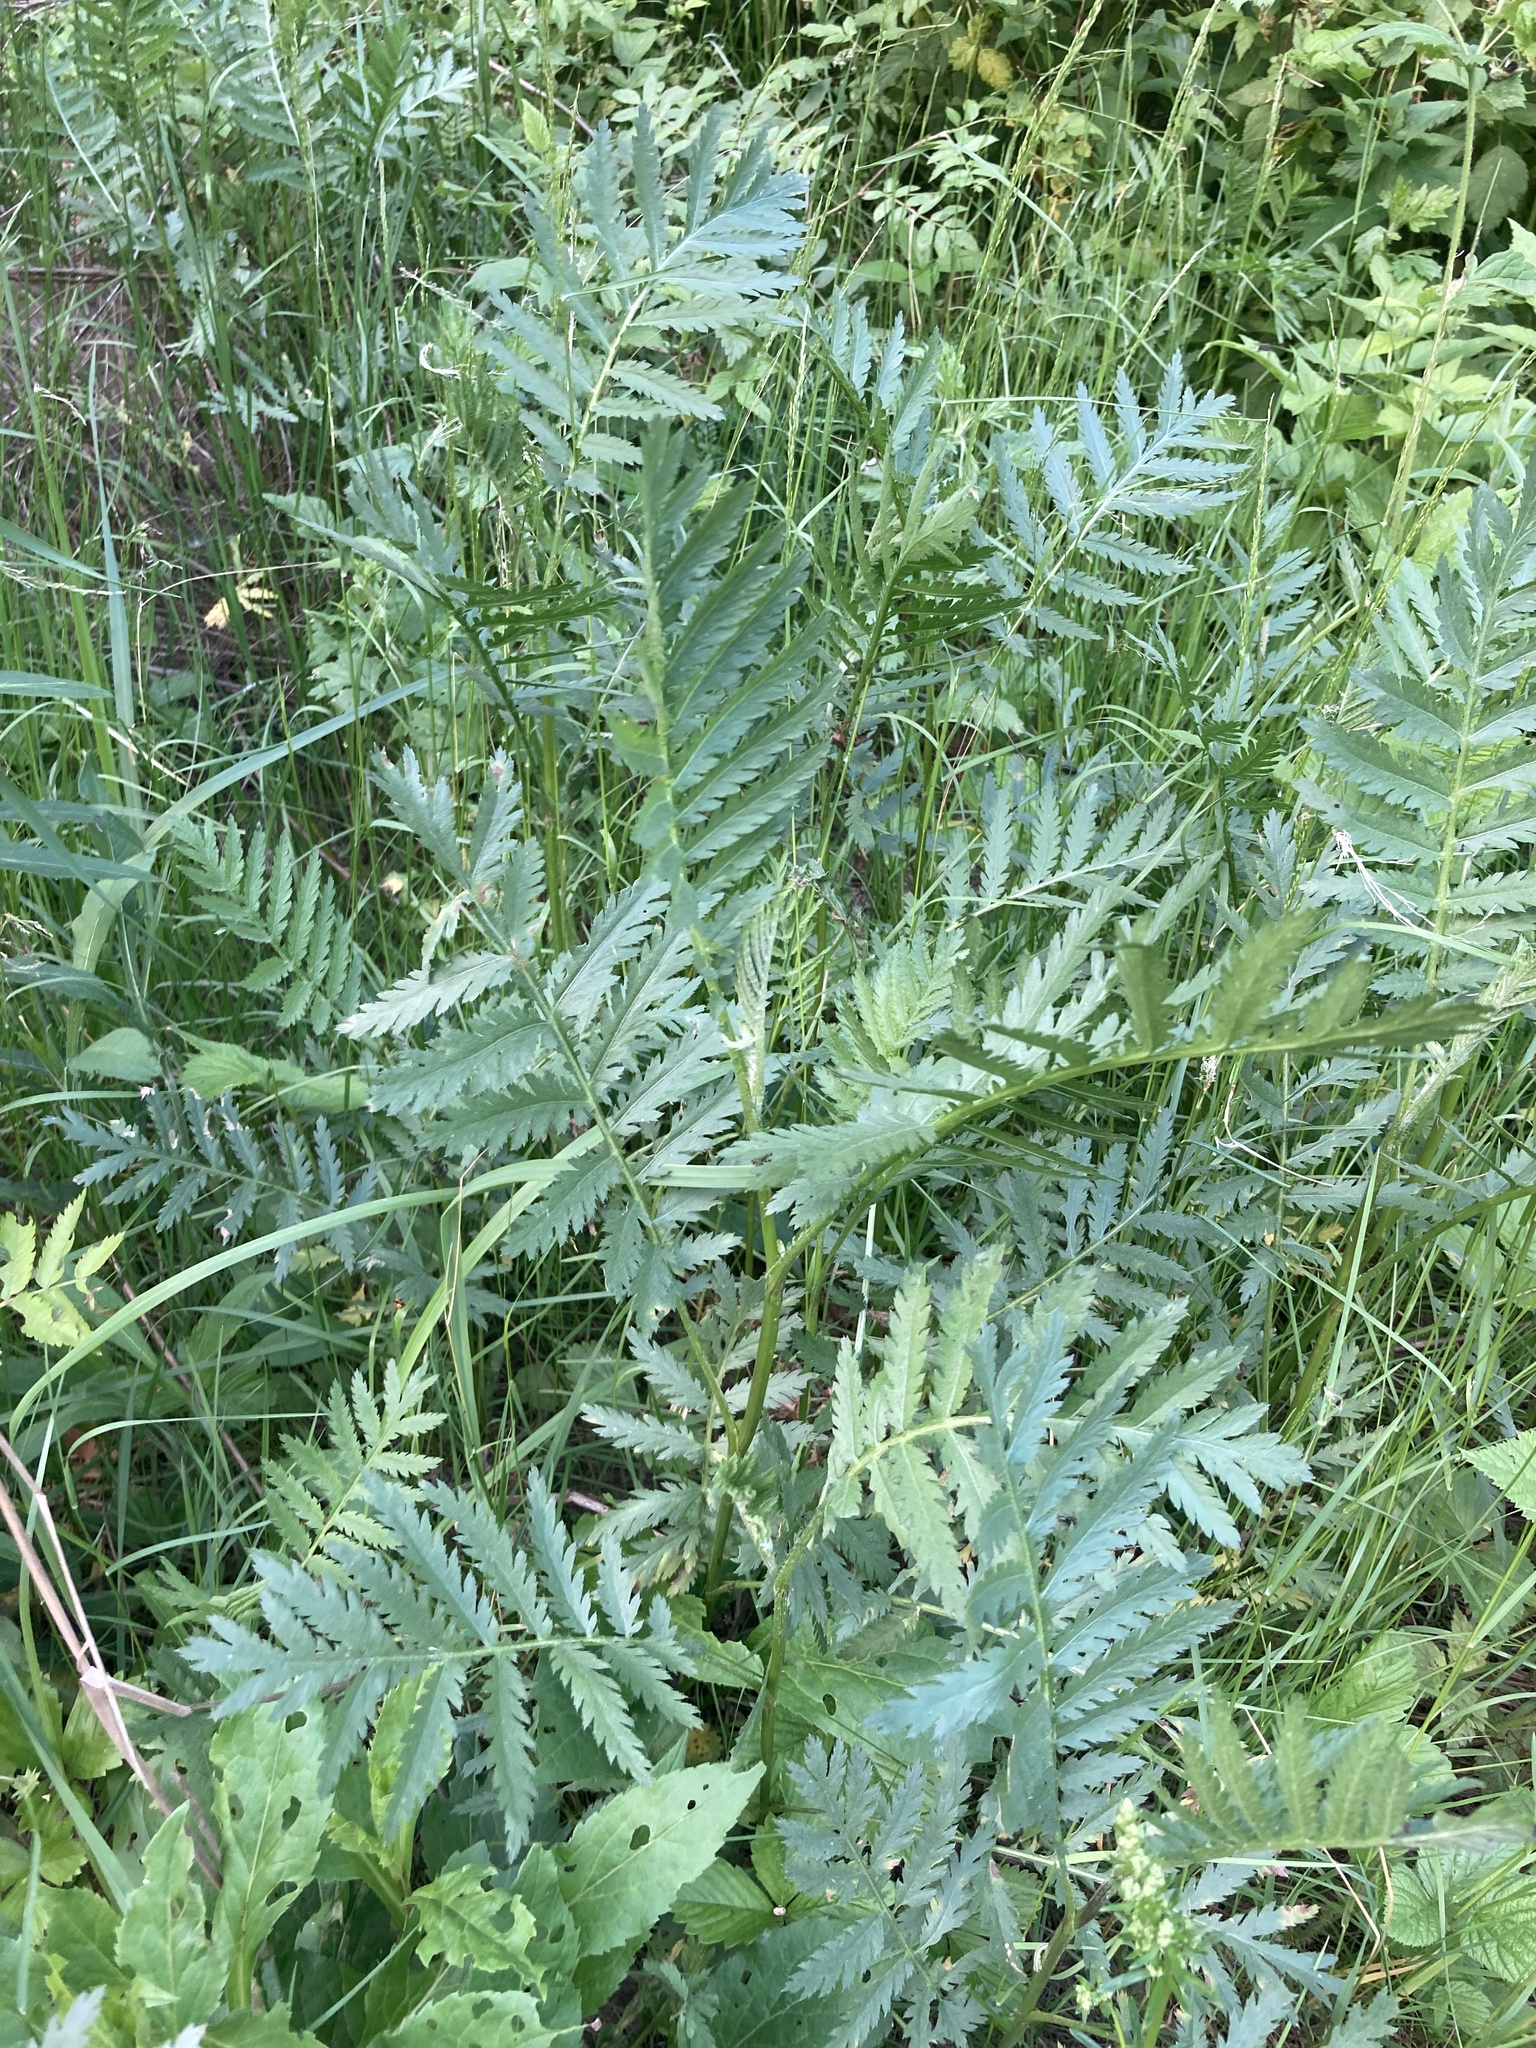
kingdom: Plantae
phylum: Tracheophyta
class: Magnoliopsida
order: Asterales
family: Asteraceae
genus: Tanacetum
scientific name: Tanacetum vulgare
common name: Common tansy
